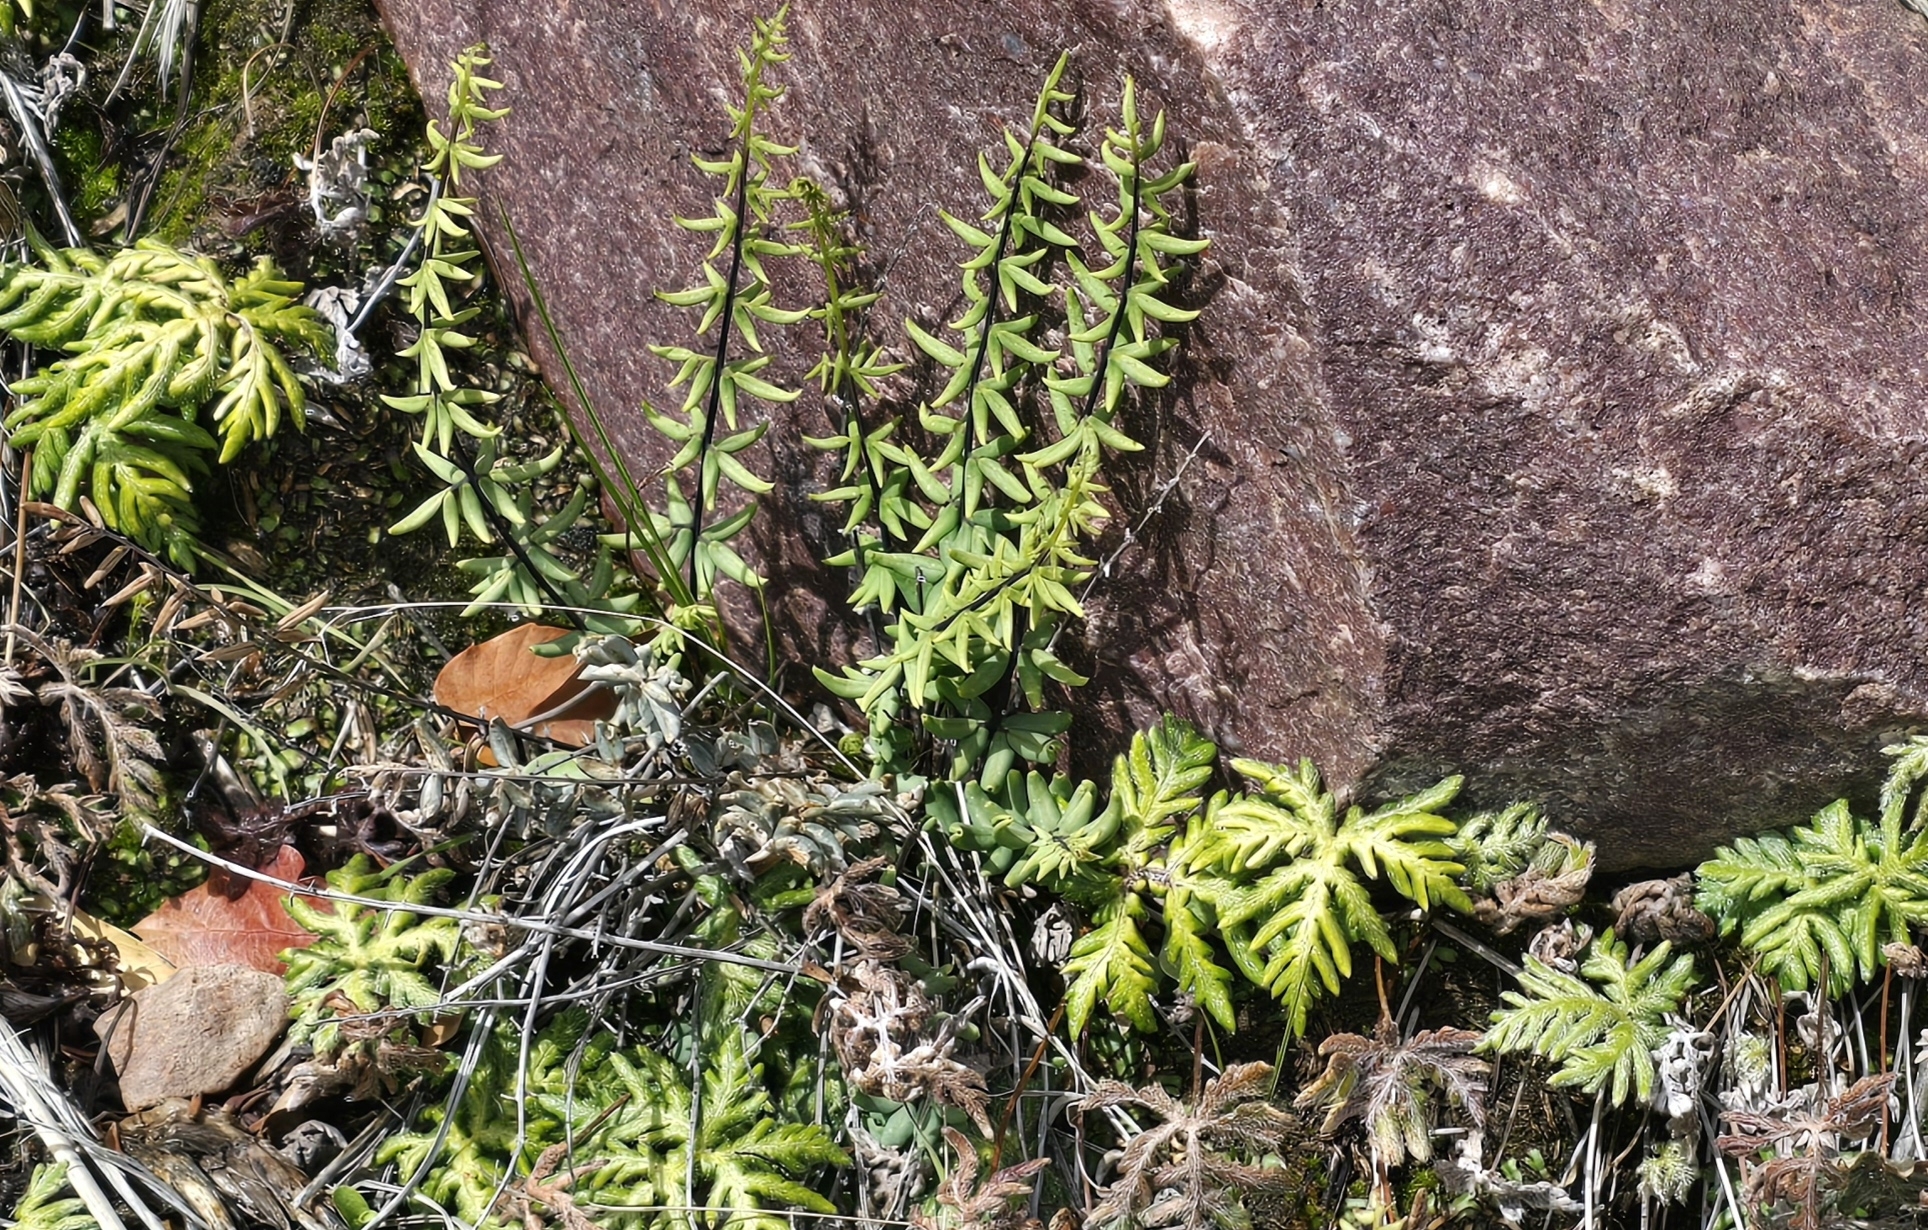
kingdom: Plantae
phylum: Tracheophyta
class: Polypodiopsida
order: Polypodiales
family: Pteridaceae
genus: Pellaea
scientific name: Pellaea wrightiana
